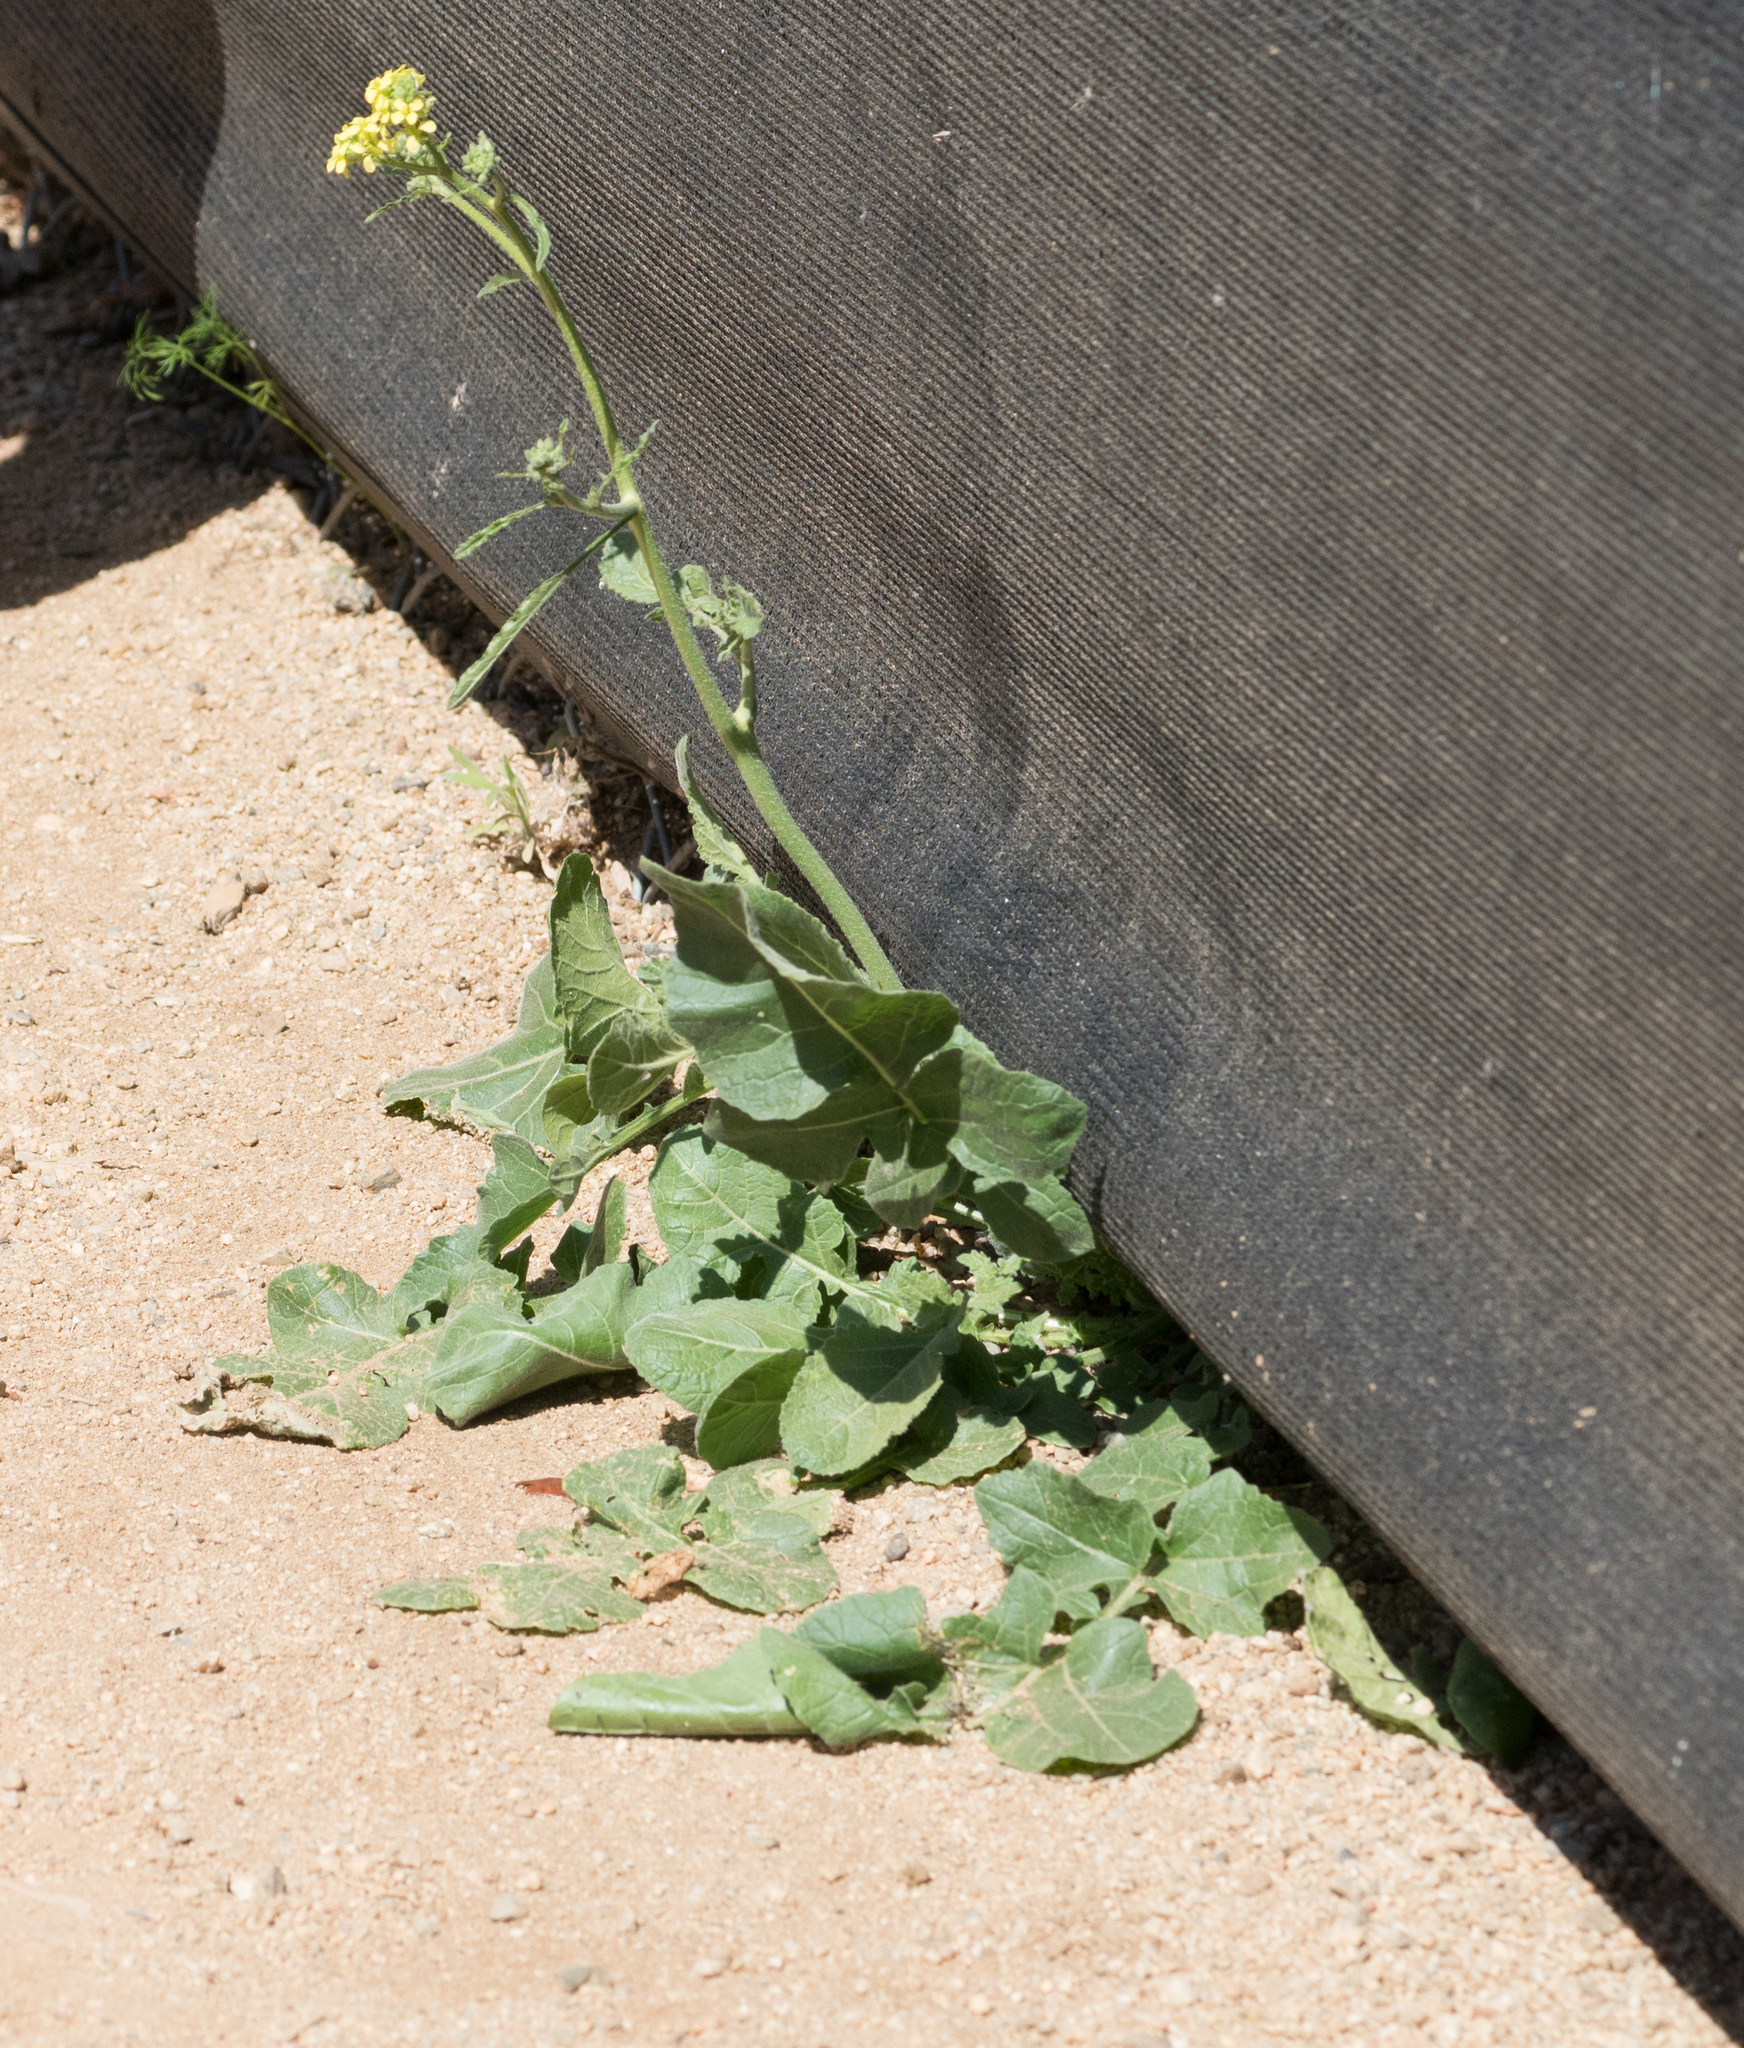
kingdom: Plantae
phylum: Tracheophyta
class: Magnoliopsida
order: Brassicales
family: Brassicaceae
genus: Hirschfeldia
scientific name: Hirschfeldia incana
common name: Hoary mustard
